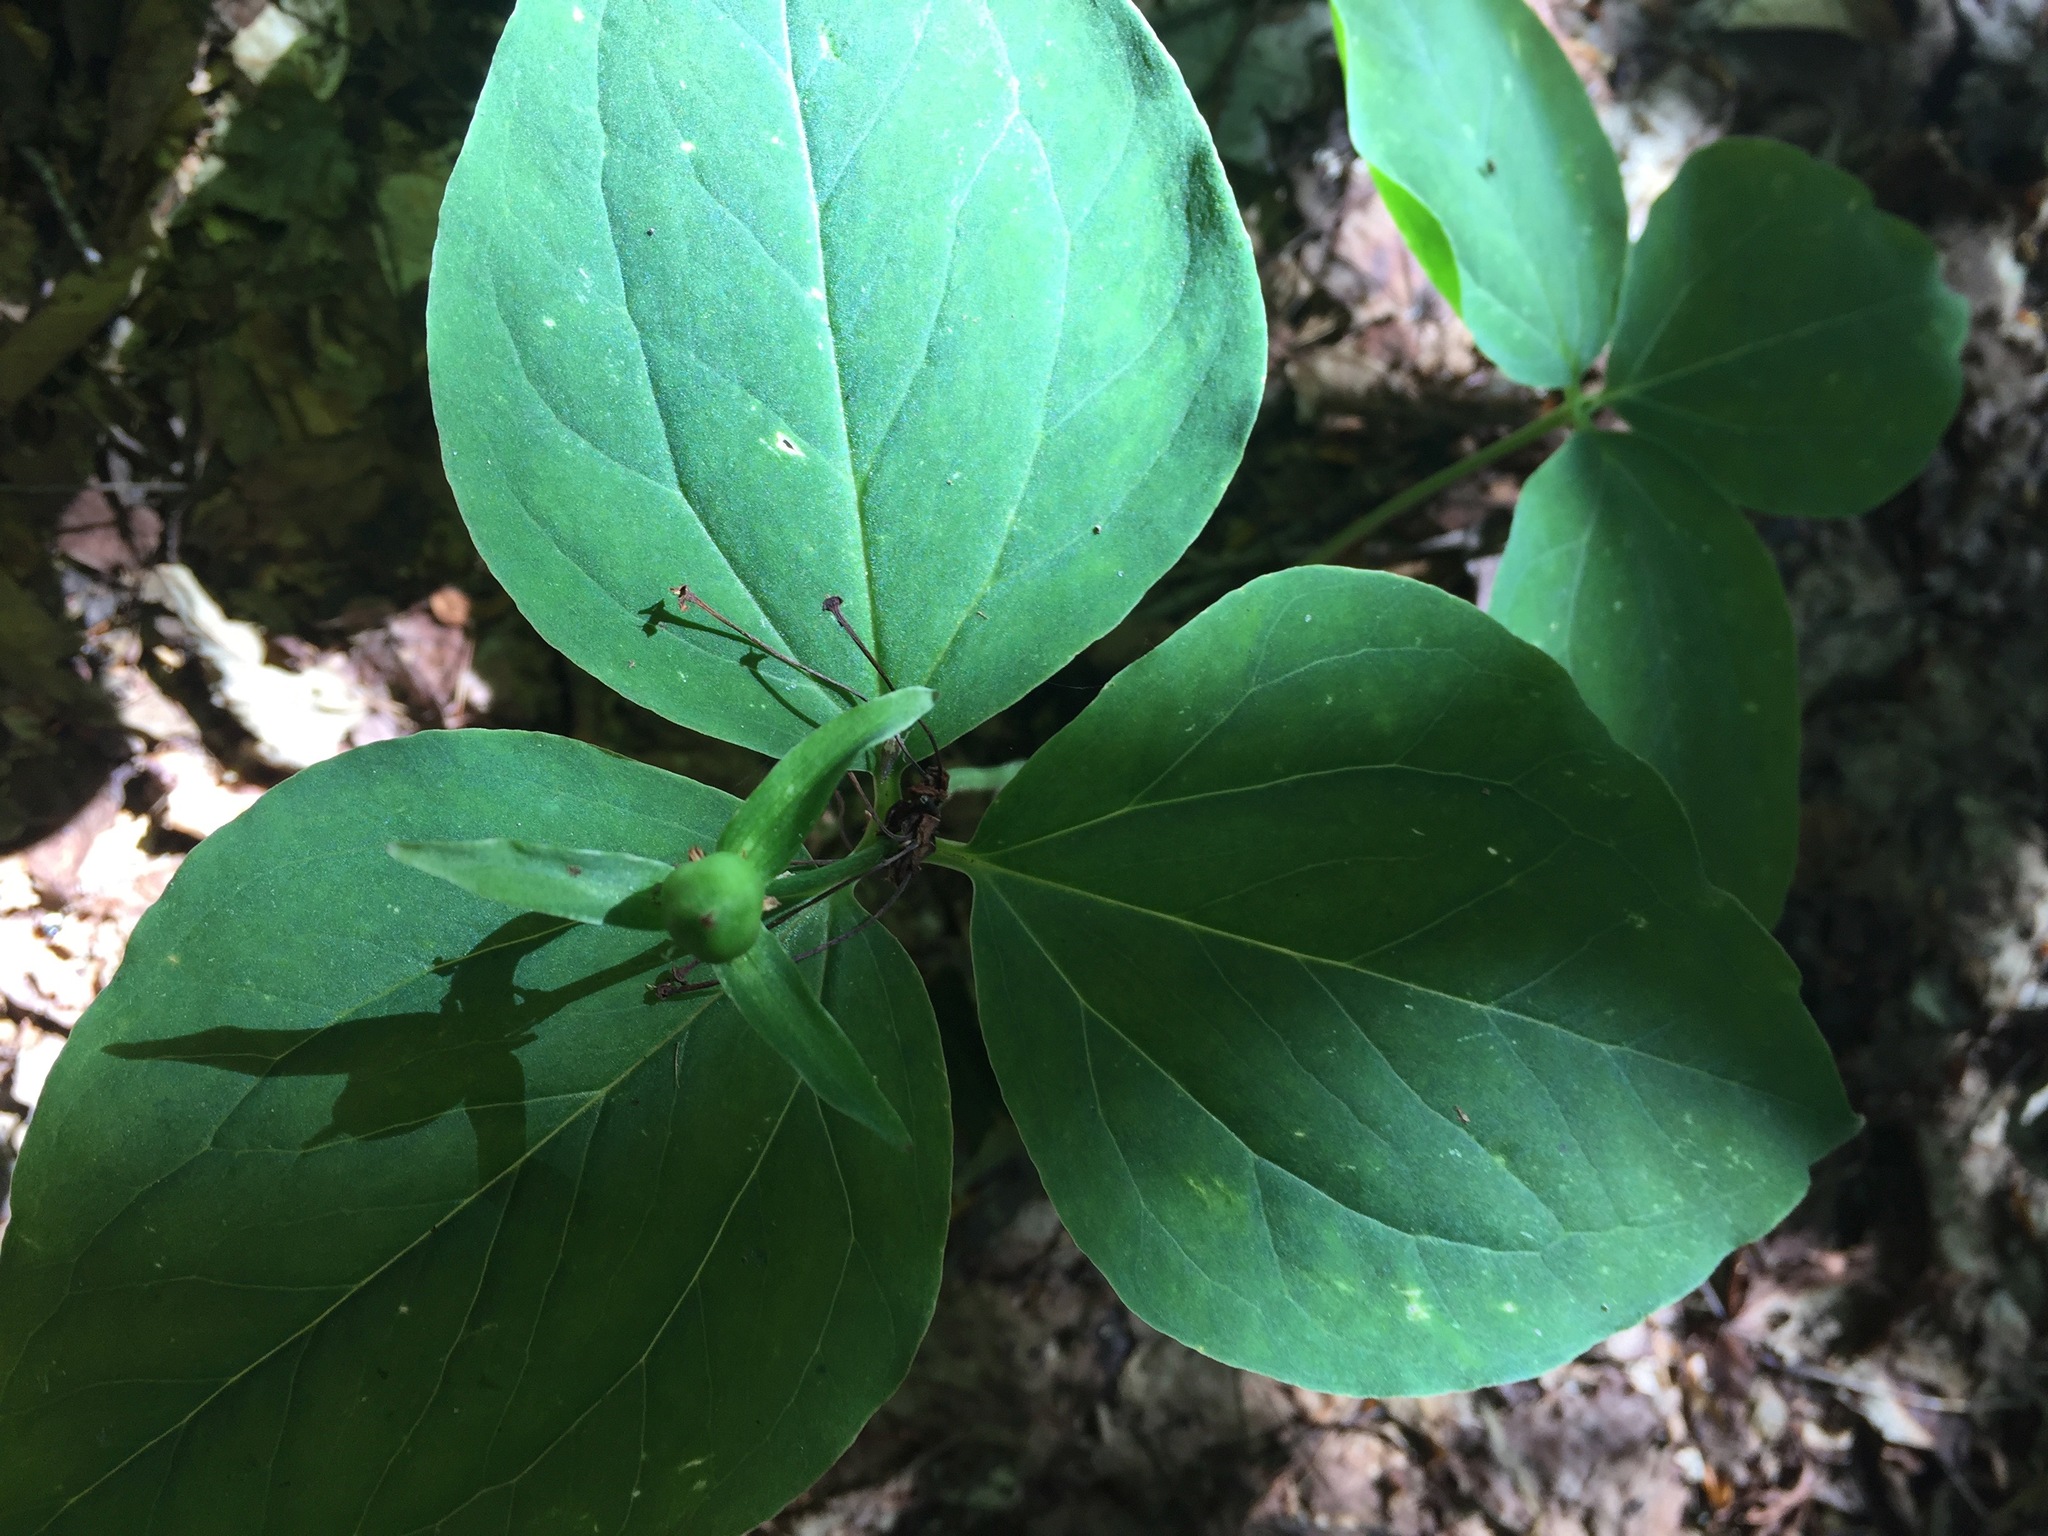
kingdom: Plantae
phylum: Tracheophyta
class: Liliopsida
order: Liliales
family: Melanthiaceae
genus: Trillium
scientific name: Trillium undulatum
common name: Paint trillium
